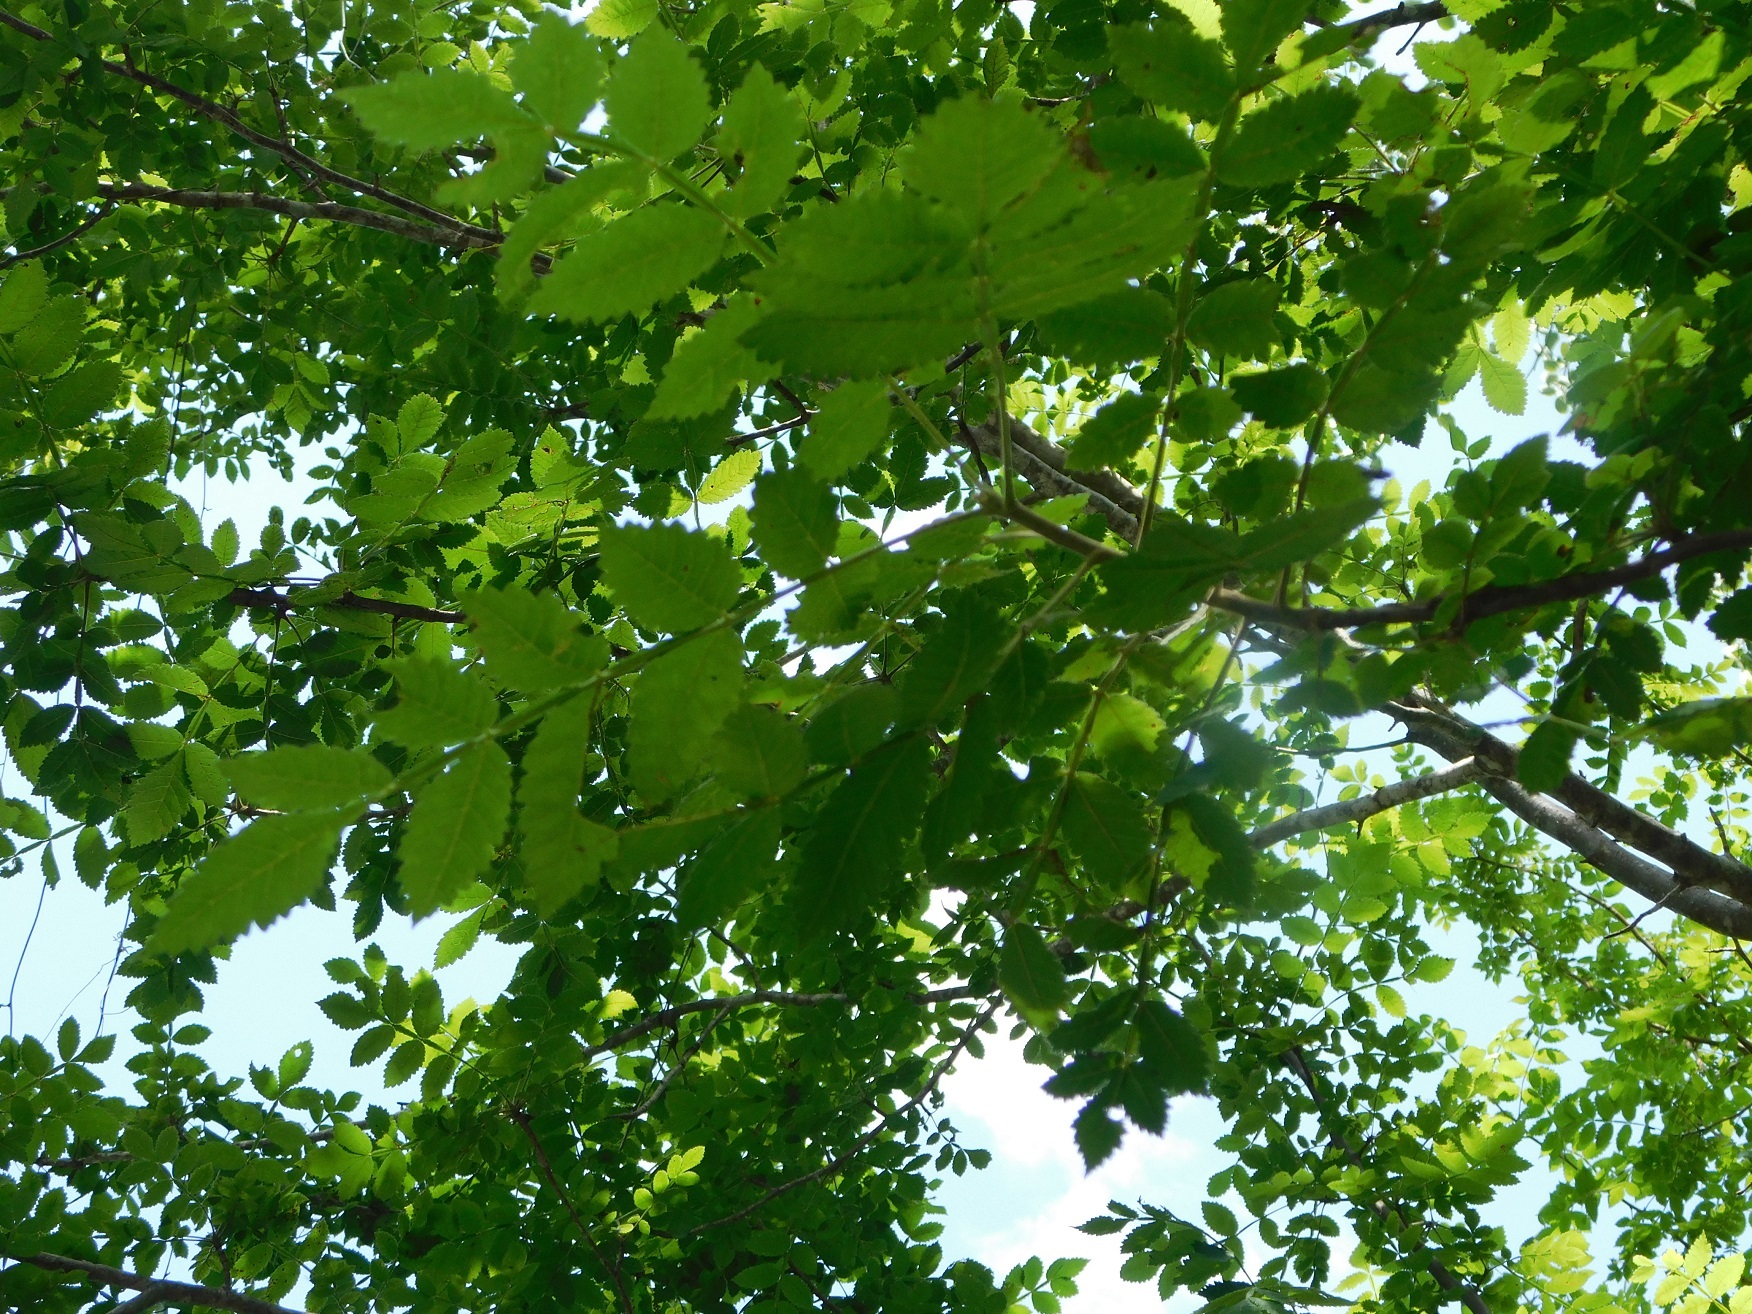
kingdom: Plantae
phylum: Tracheophyta
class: Magnoliopsida
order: Sapindales
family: Burseraceae
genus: Bursera
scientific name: Bursera excelsa
